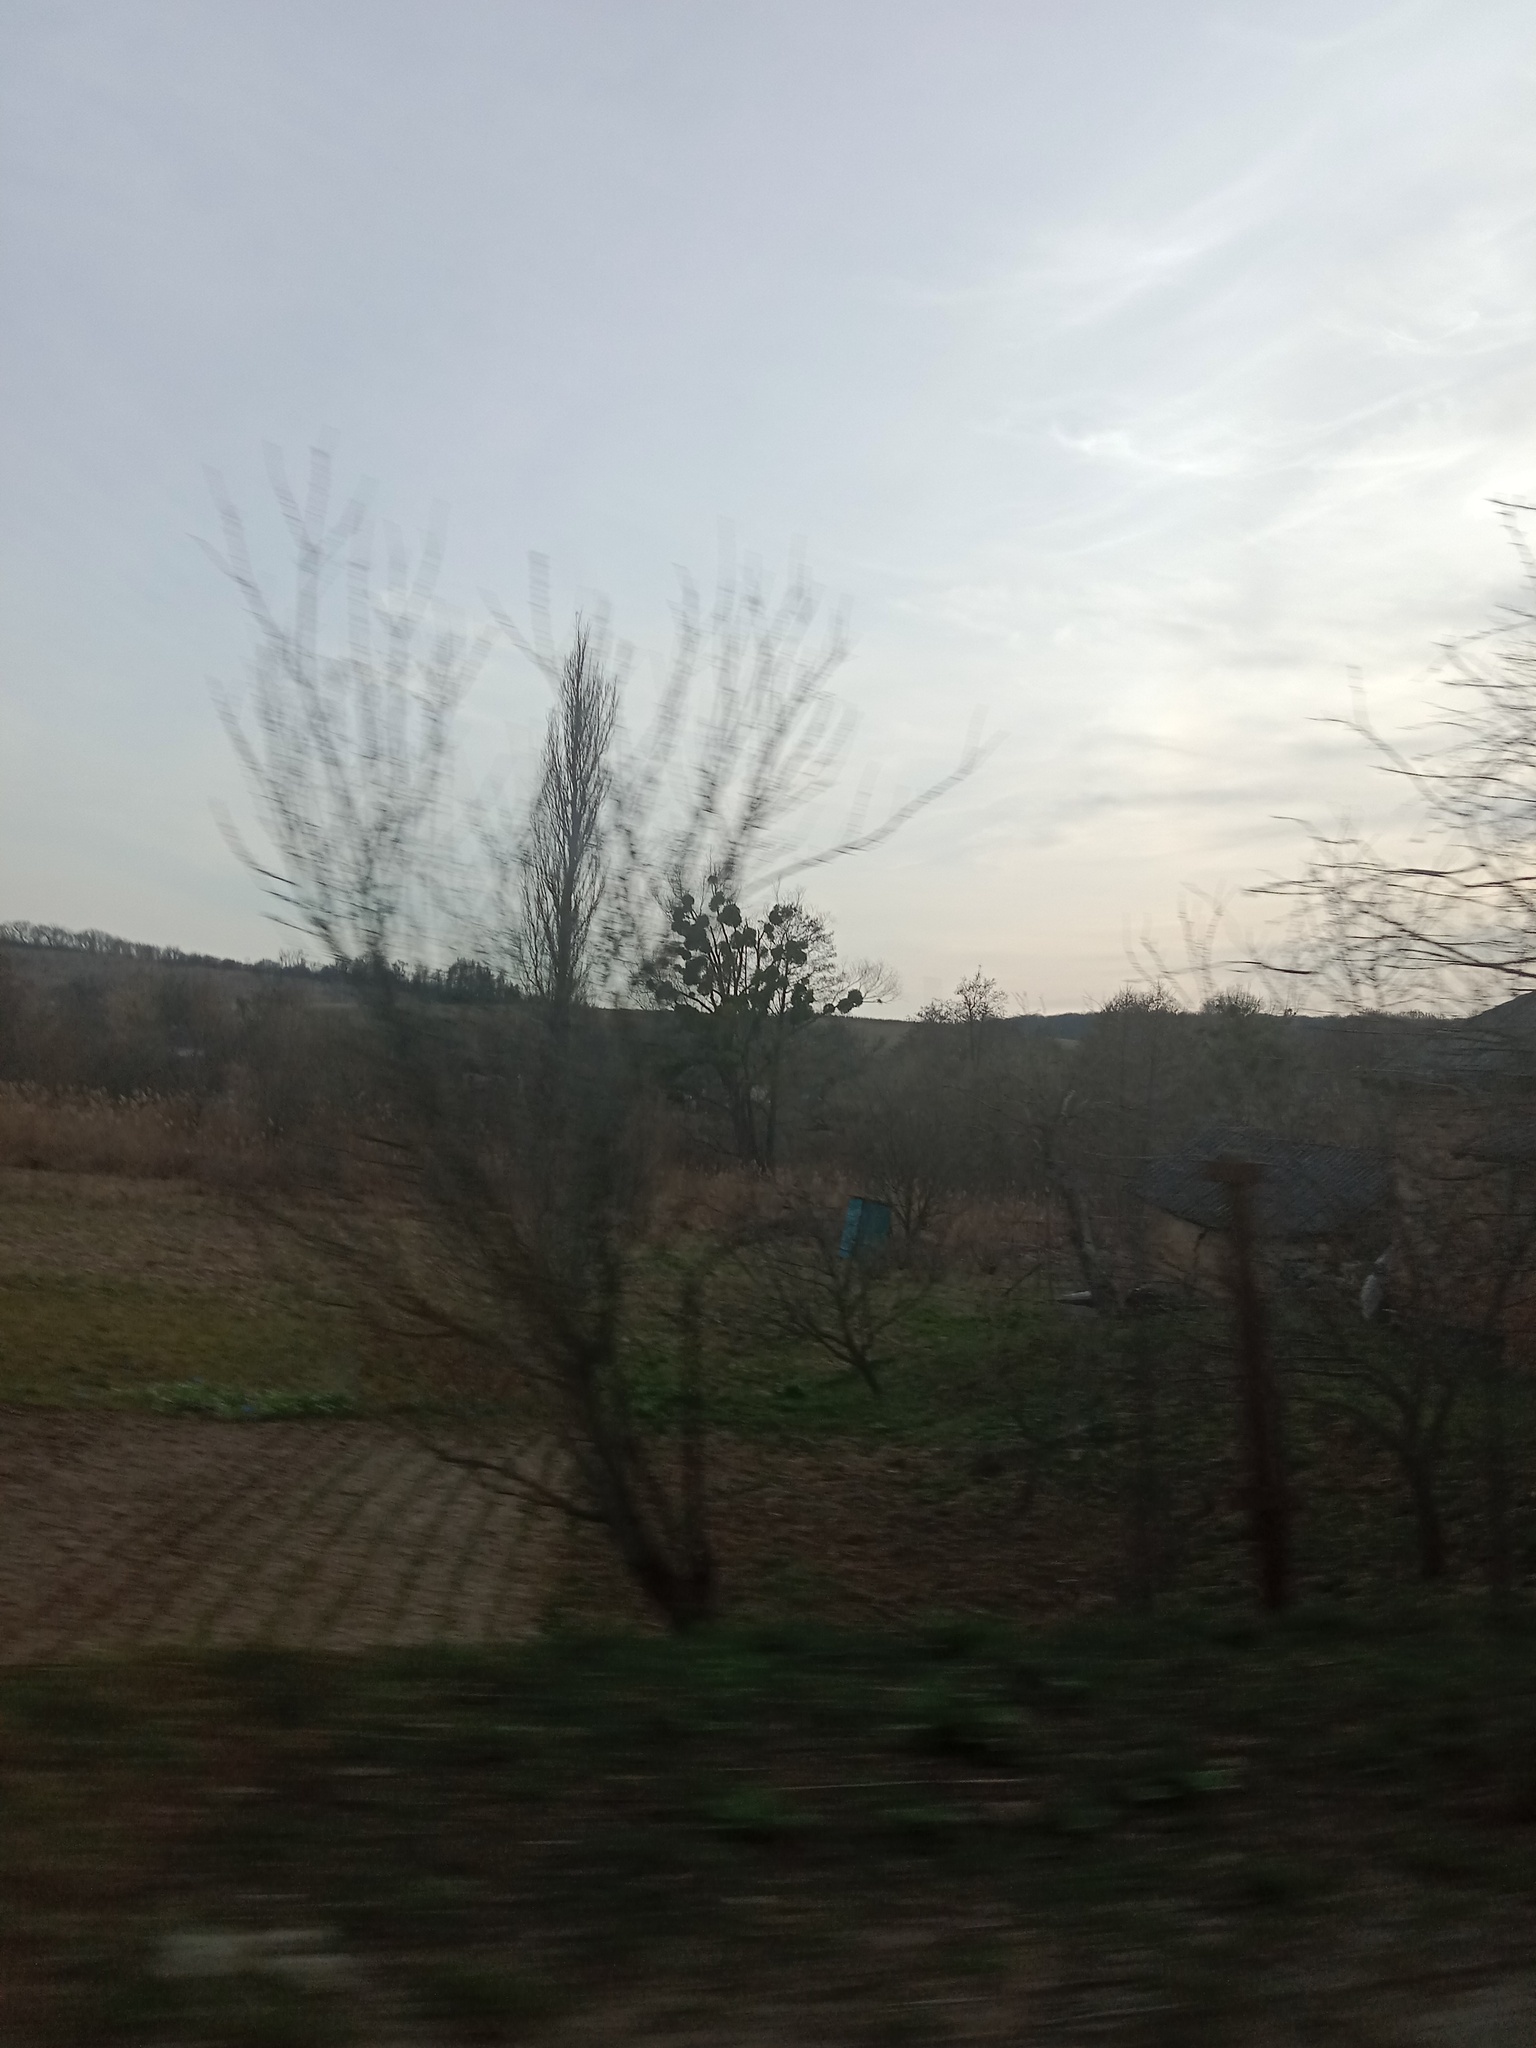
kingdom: Plantae
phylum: Tracheophyta
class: Magnoliopsida
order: Santalales
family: Viscaceae
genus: Viscum
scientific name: Viscum album
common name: Mistletoe
